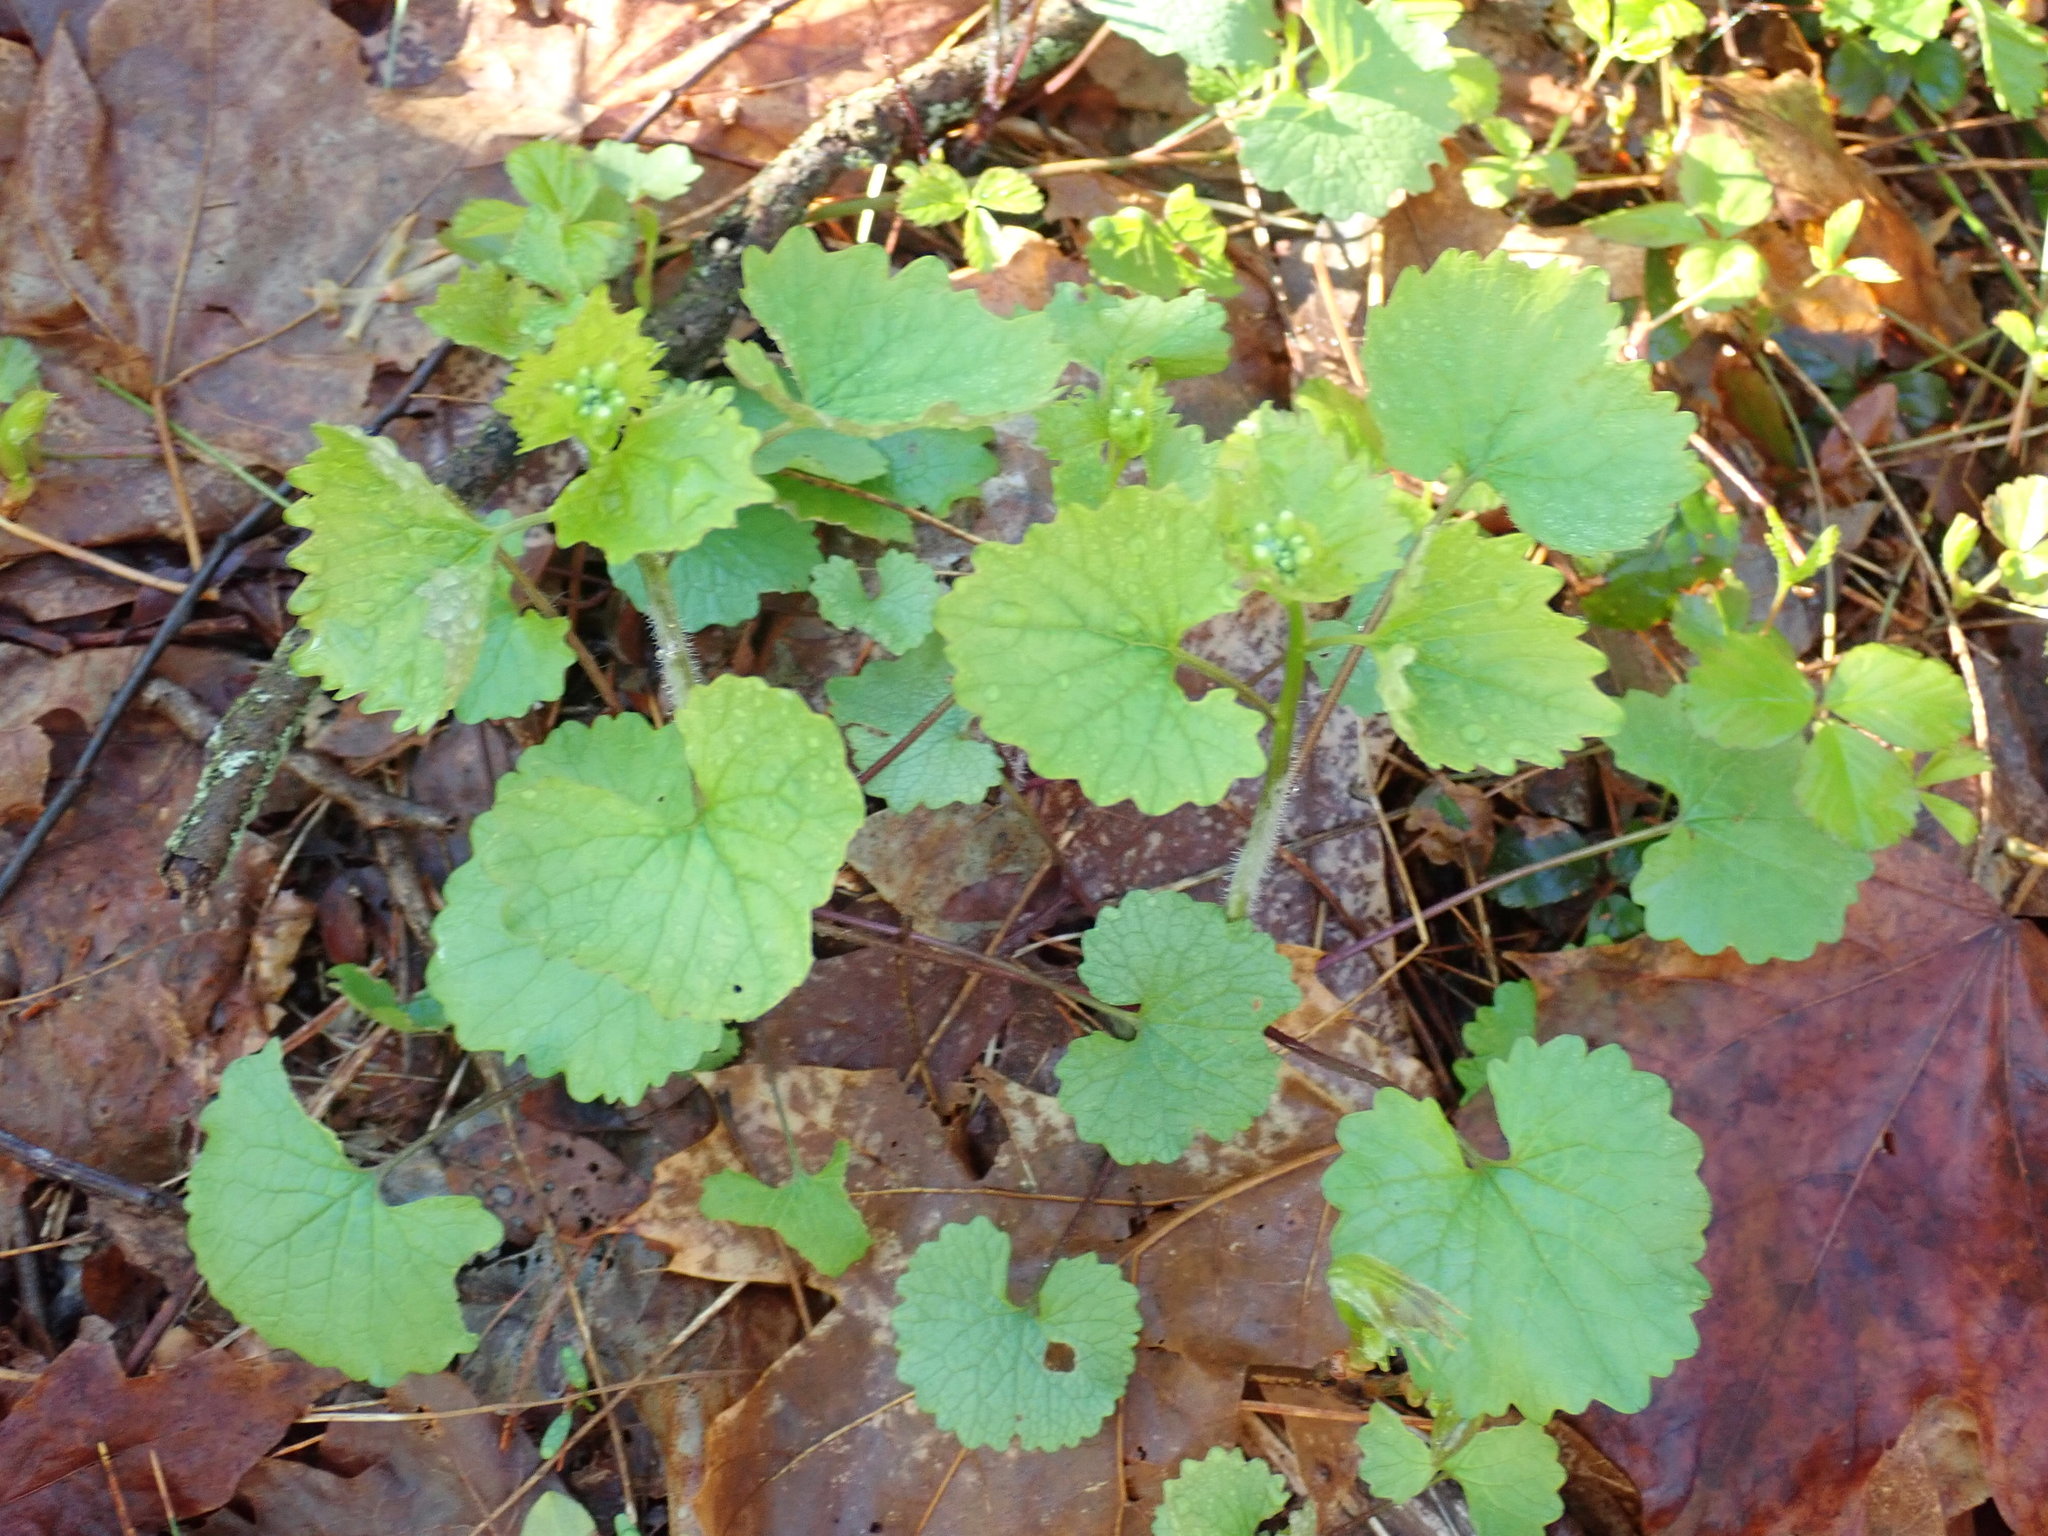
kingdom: Plantae
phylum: Tracheophyta
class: Magnoliopsida
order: Brassicales
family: Brassicaceae
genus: Alliaria
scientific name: Alliaria petiolata
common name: Garlic mustard
